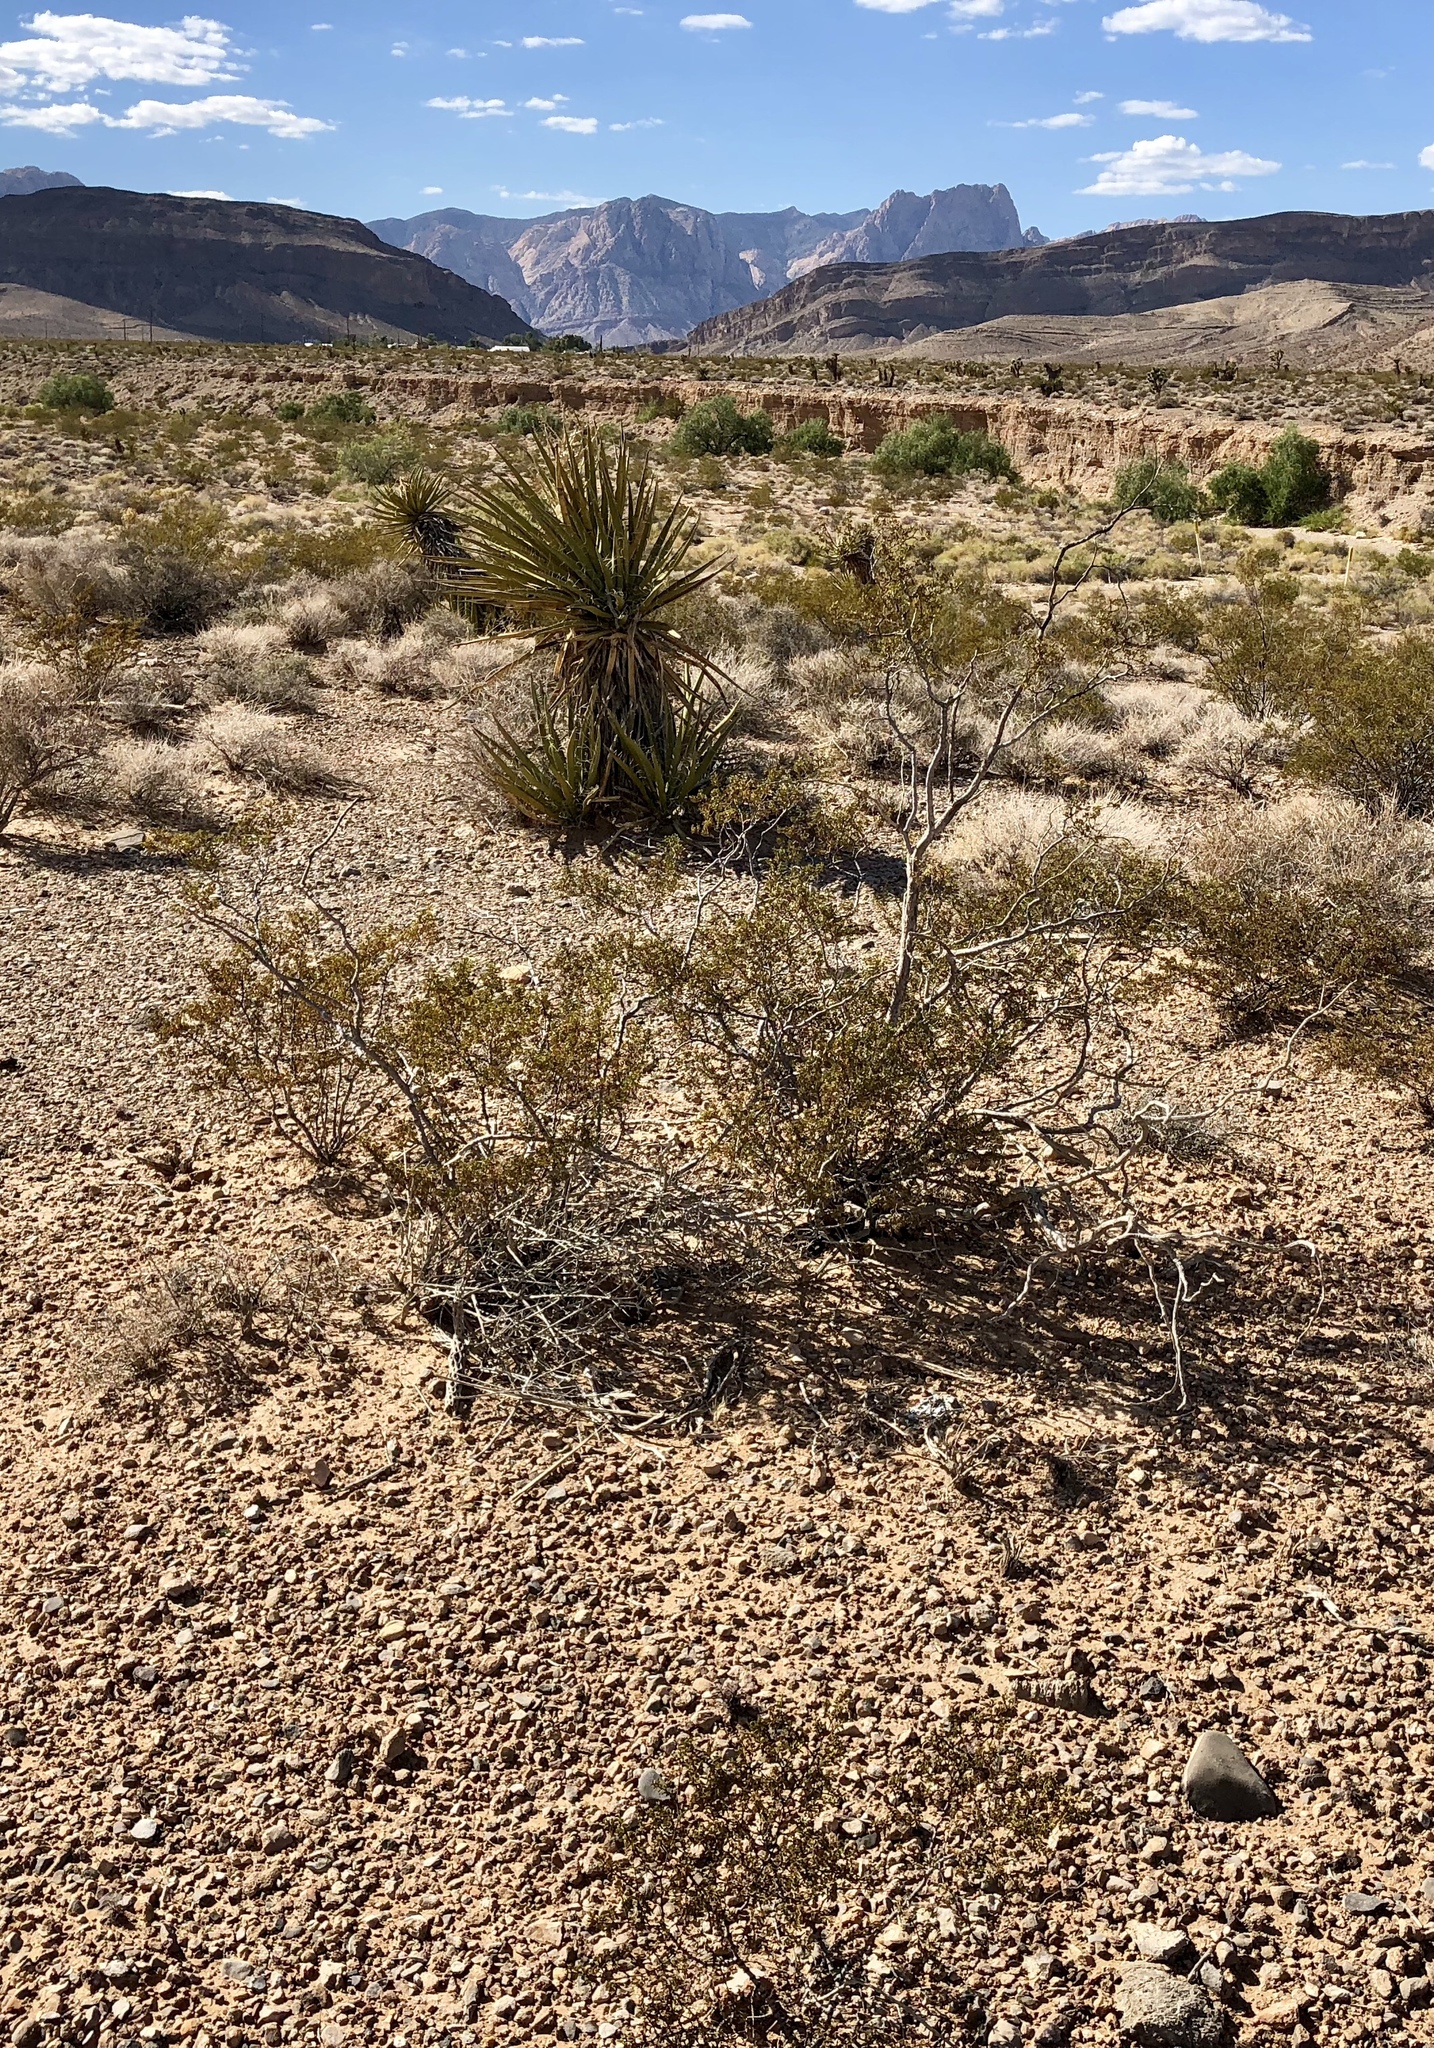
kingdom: Plantae
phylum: Tracheophyta
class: Magnoliopsida
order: Zygophyllales
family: Zygophyllaceae
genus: Larrea
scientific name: Larrea tridentata
